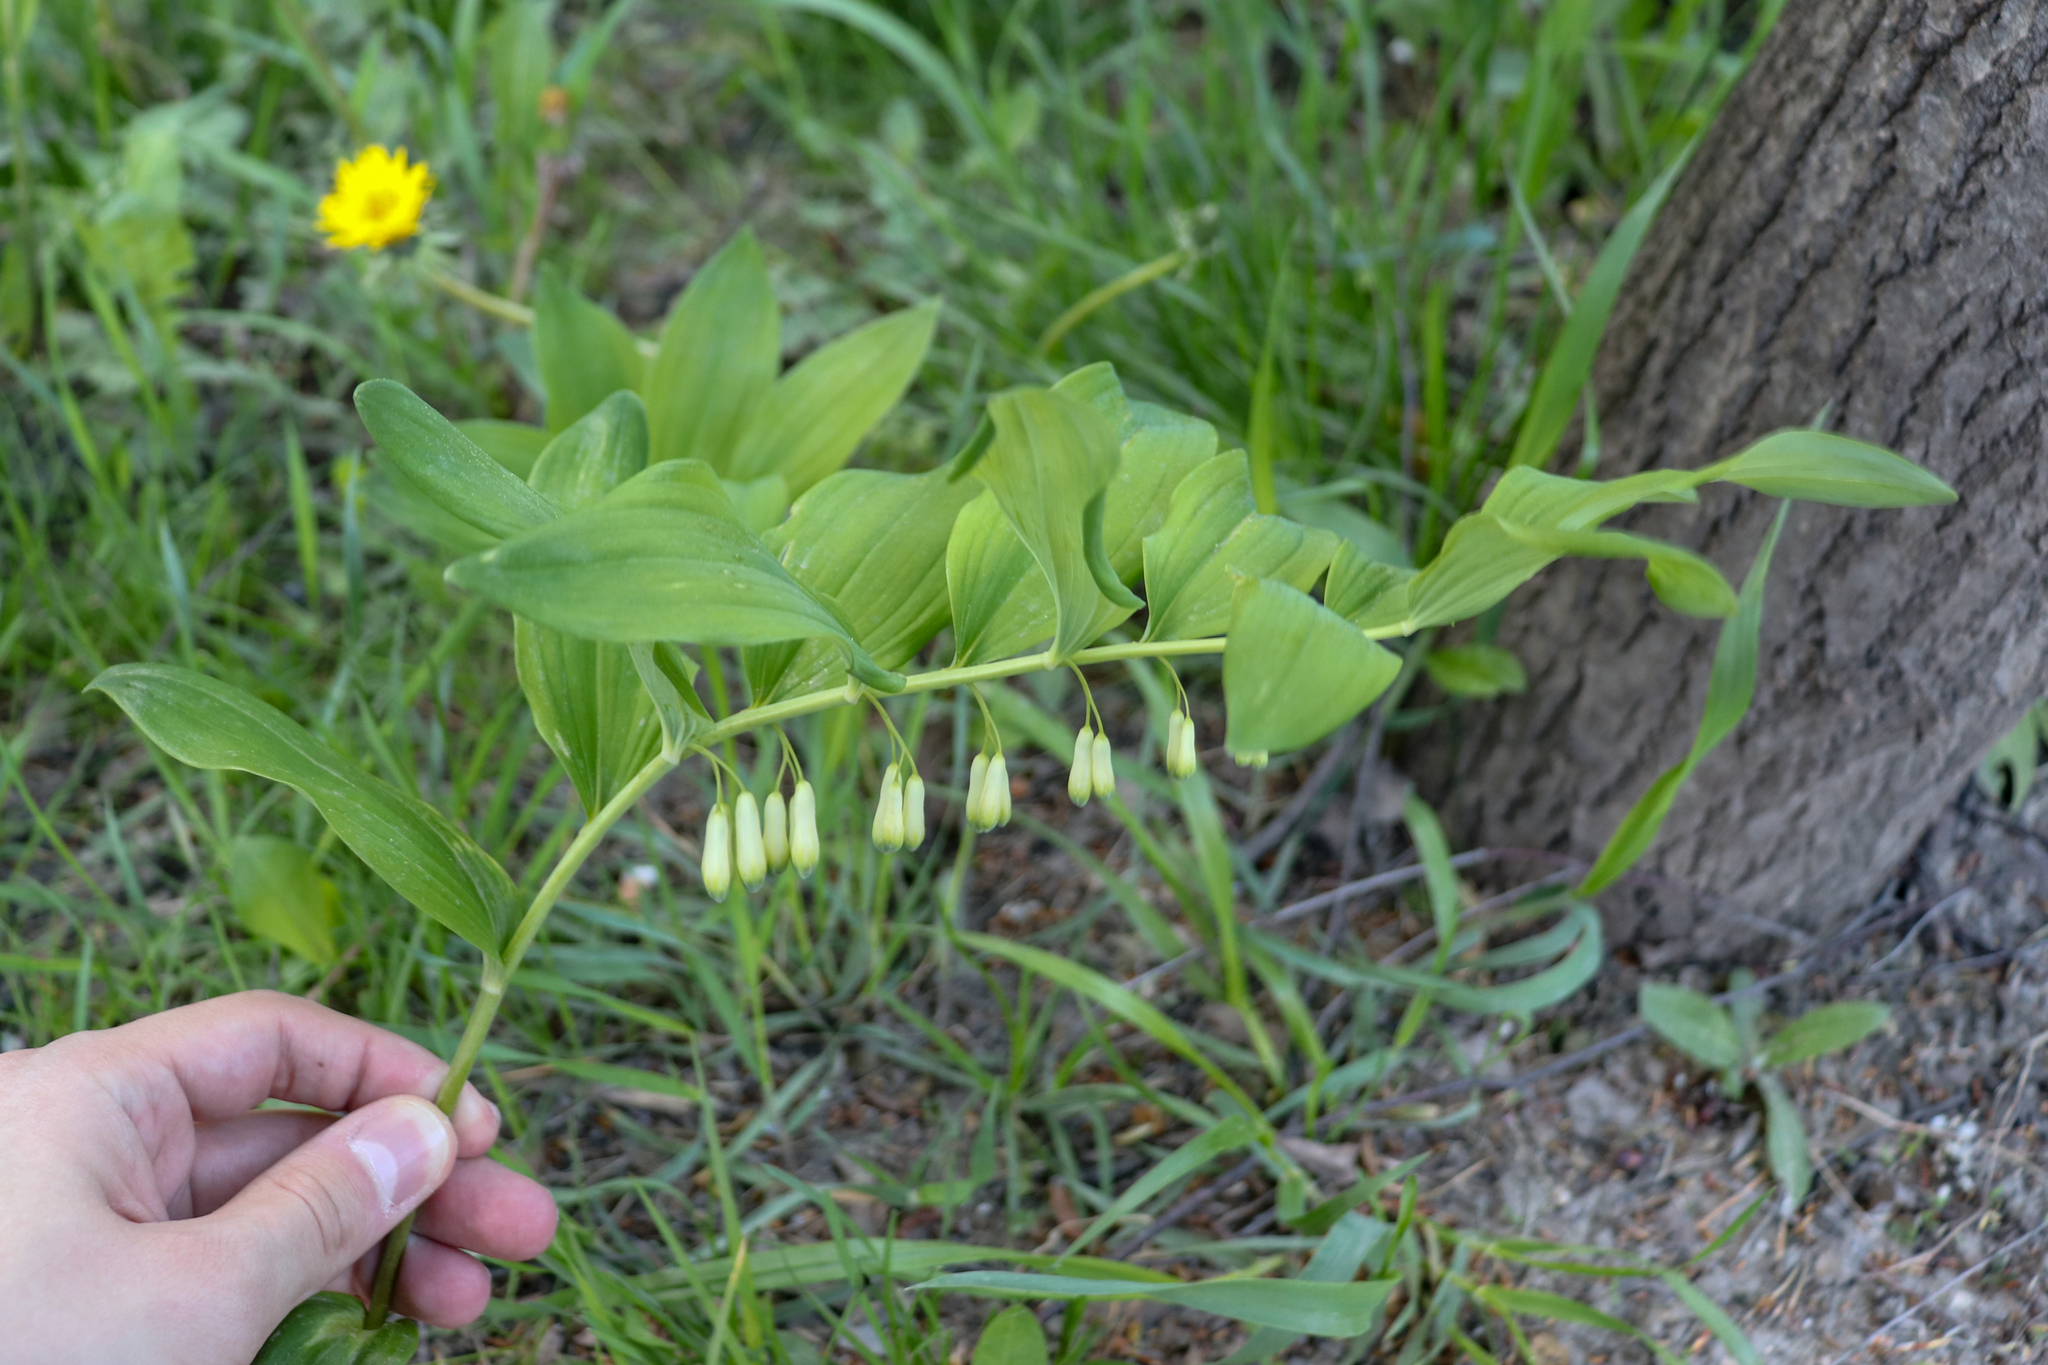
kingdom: Plantae
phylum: Tracheophyta
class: Liliopsida
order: Asparagales
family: Asparagaceae
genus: Polygonatum
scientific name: Polygonatum multiflorum
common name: Solomon's-seal
